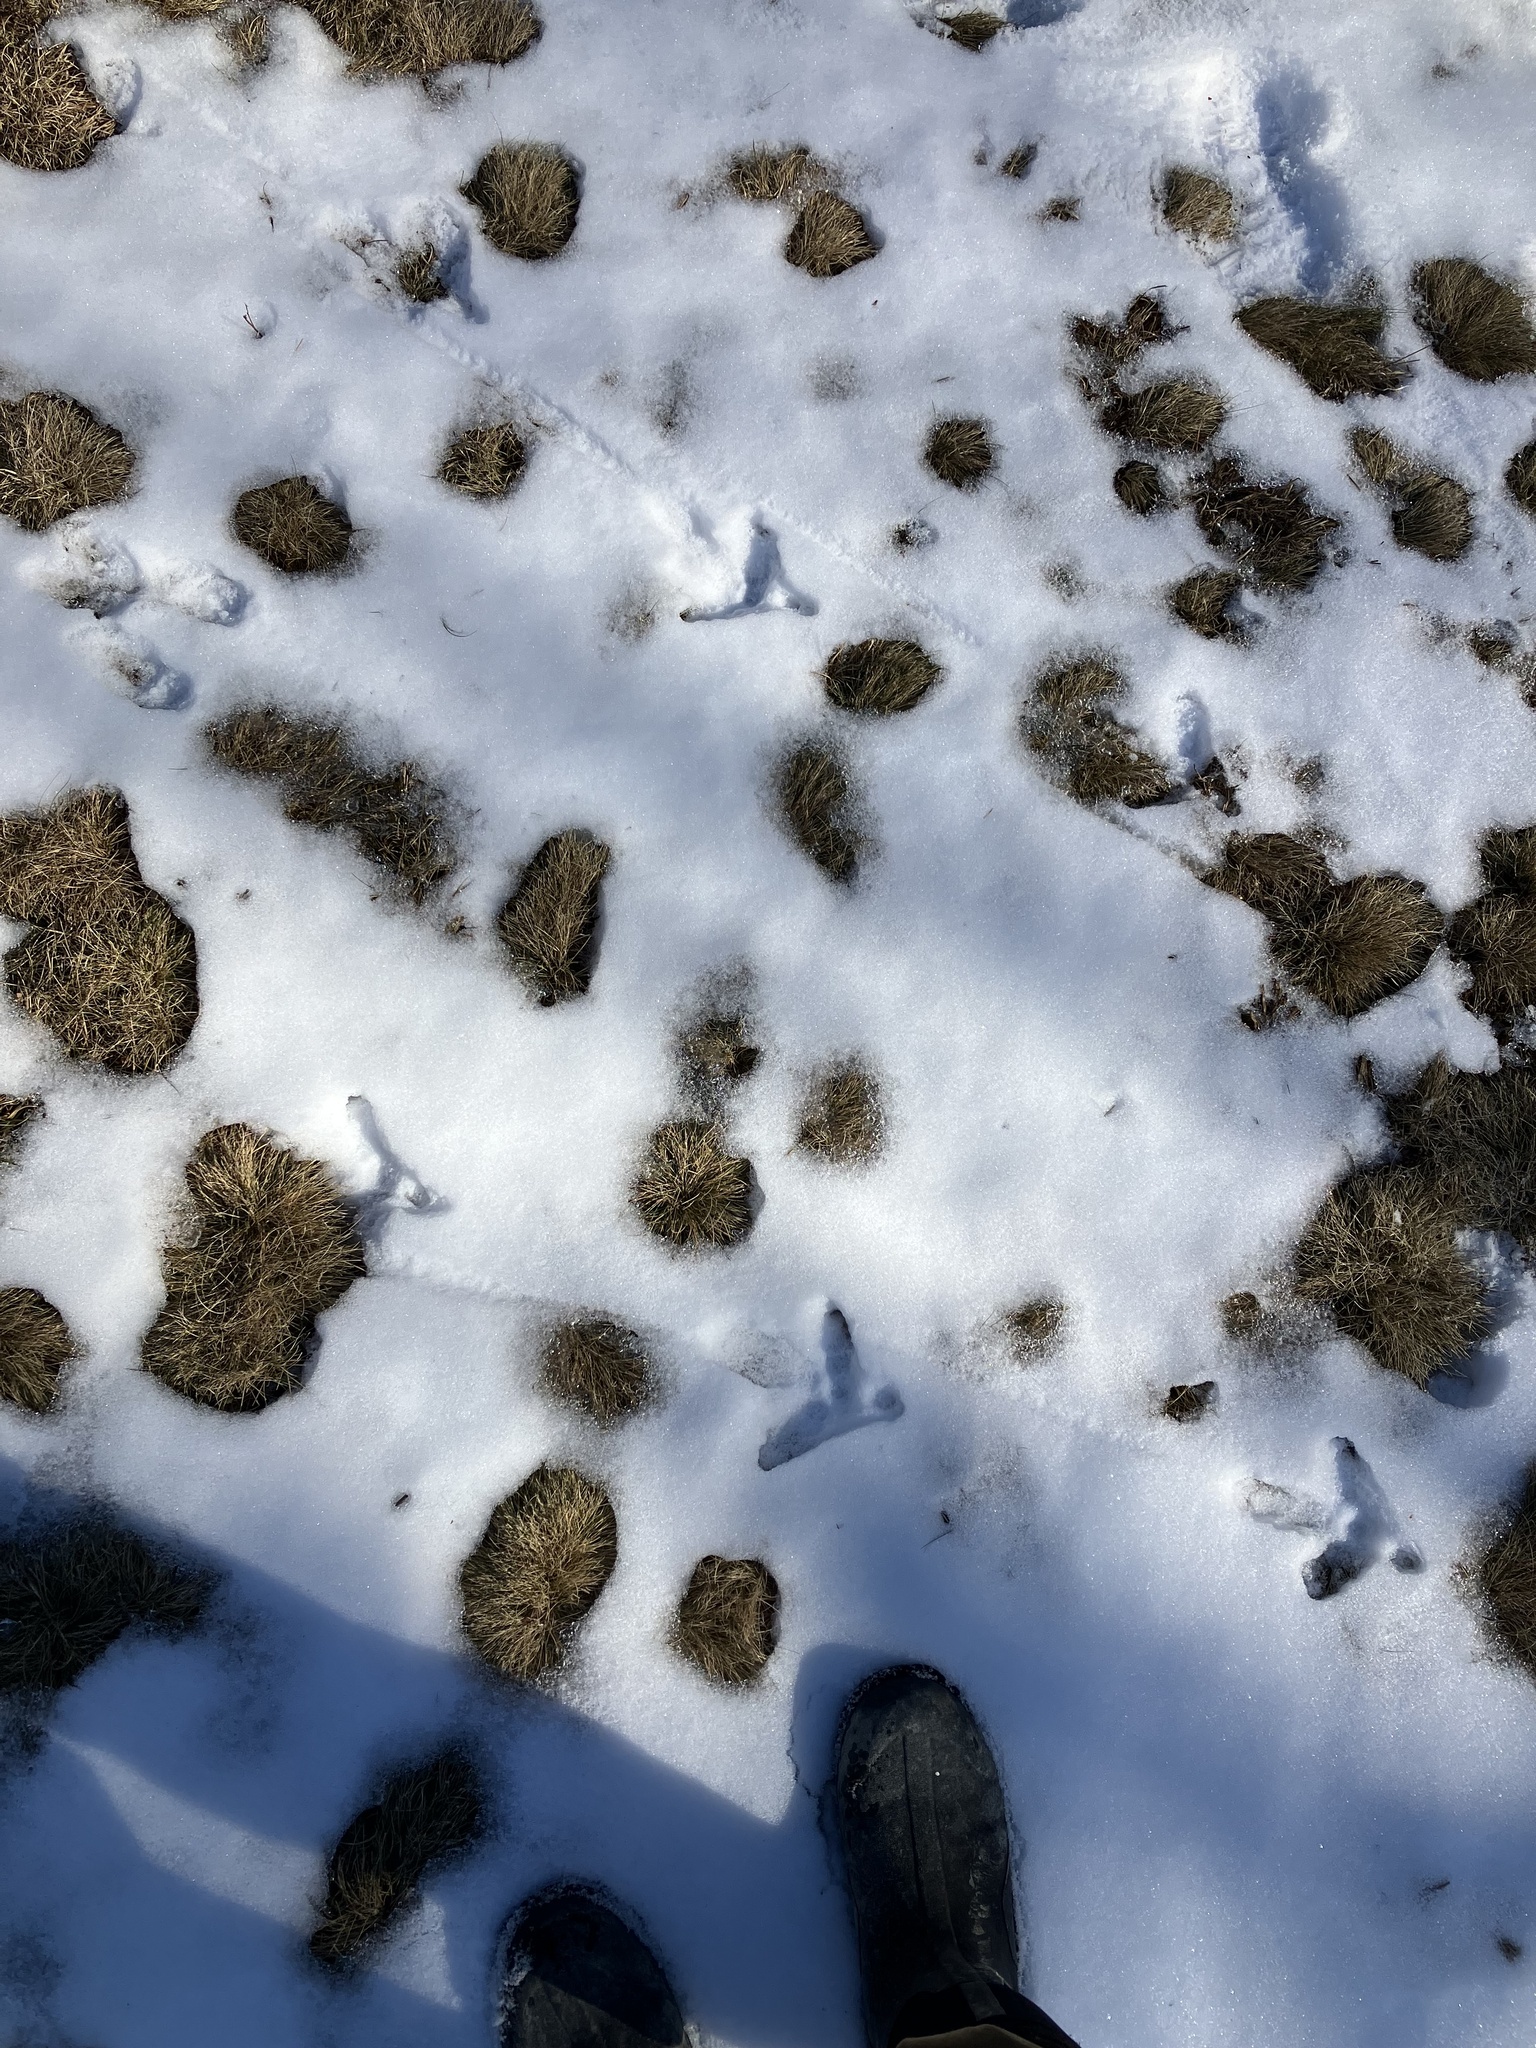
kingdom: Animalia
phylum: Chordata
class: Aves
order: Galliformes
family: Phasianidae
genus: Meleagris
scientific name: Meleagris gallopavo
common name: Wild turkey
